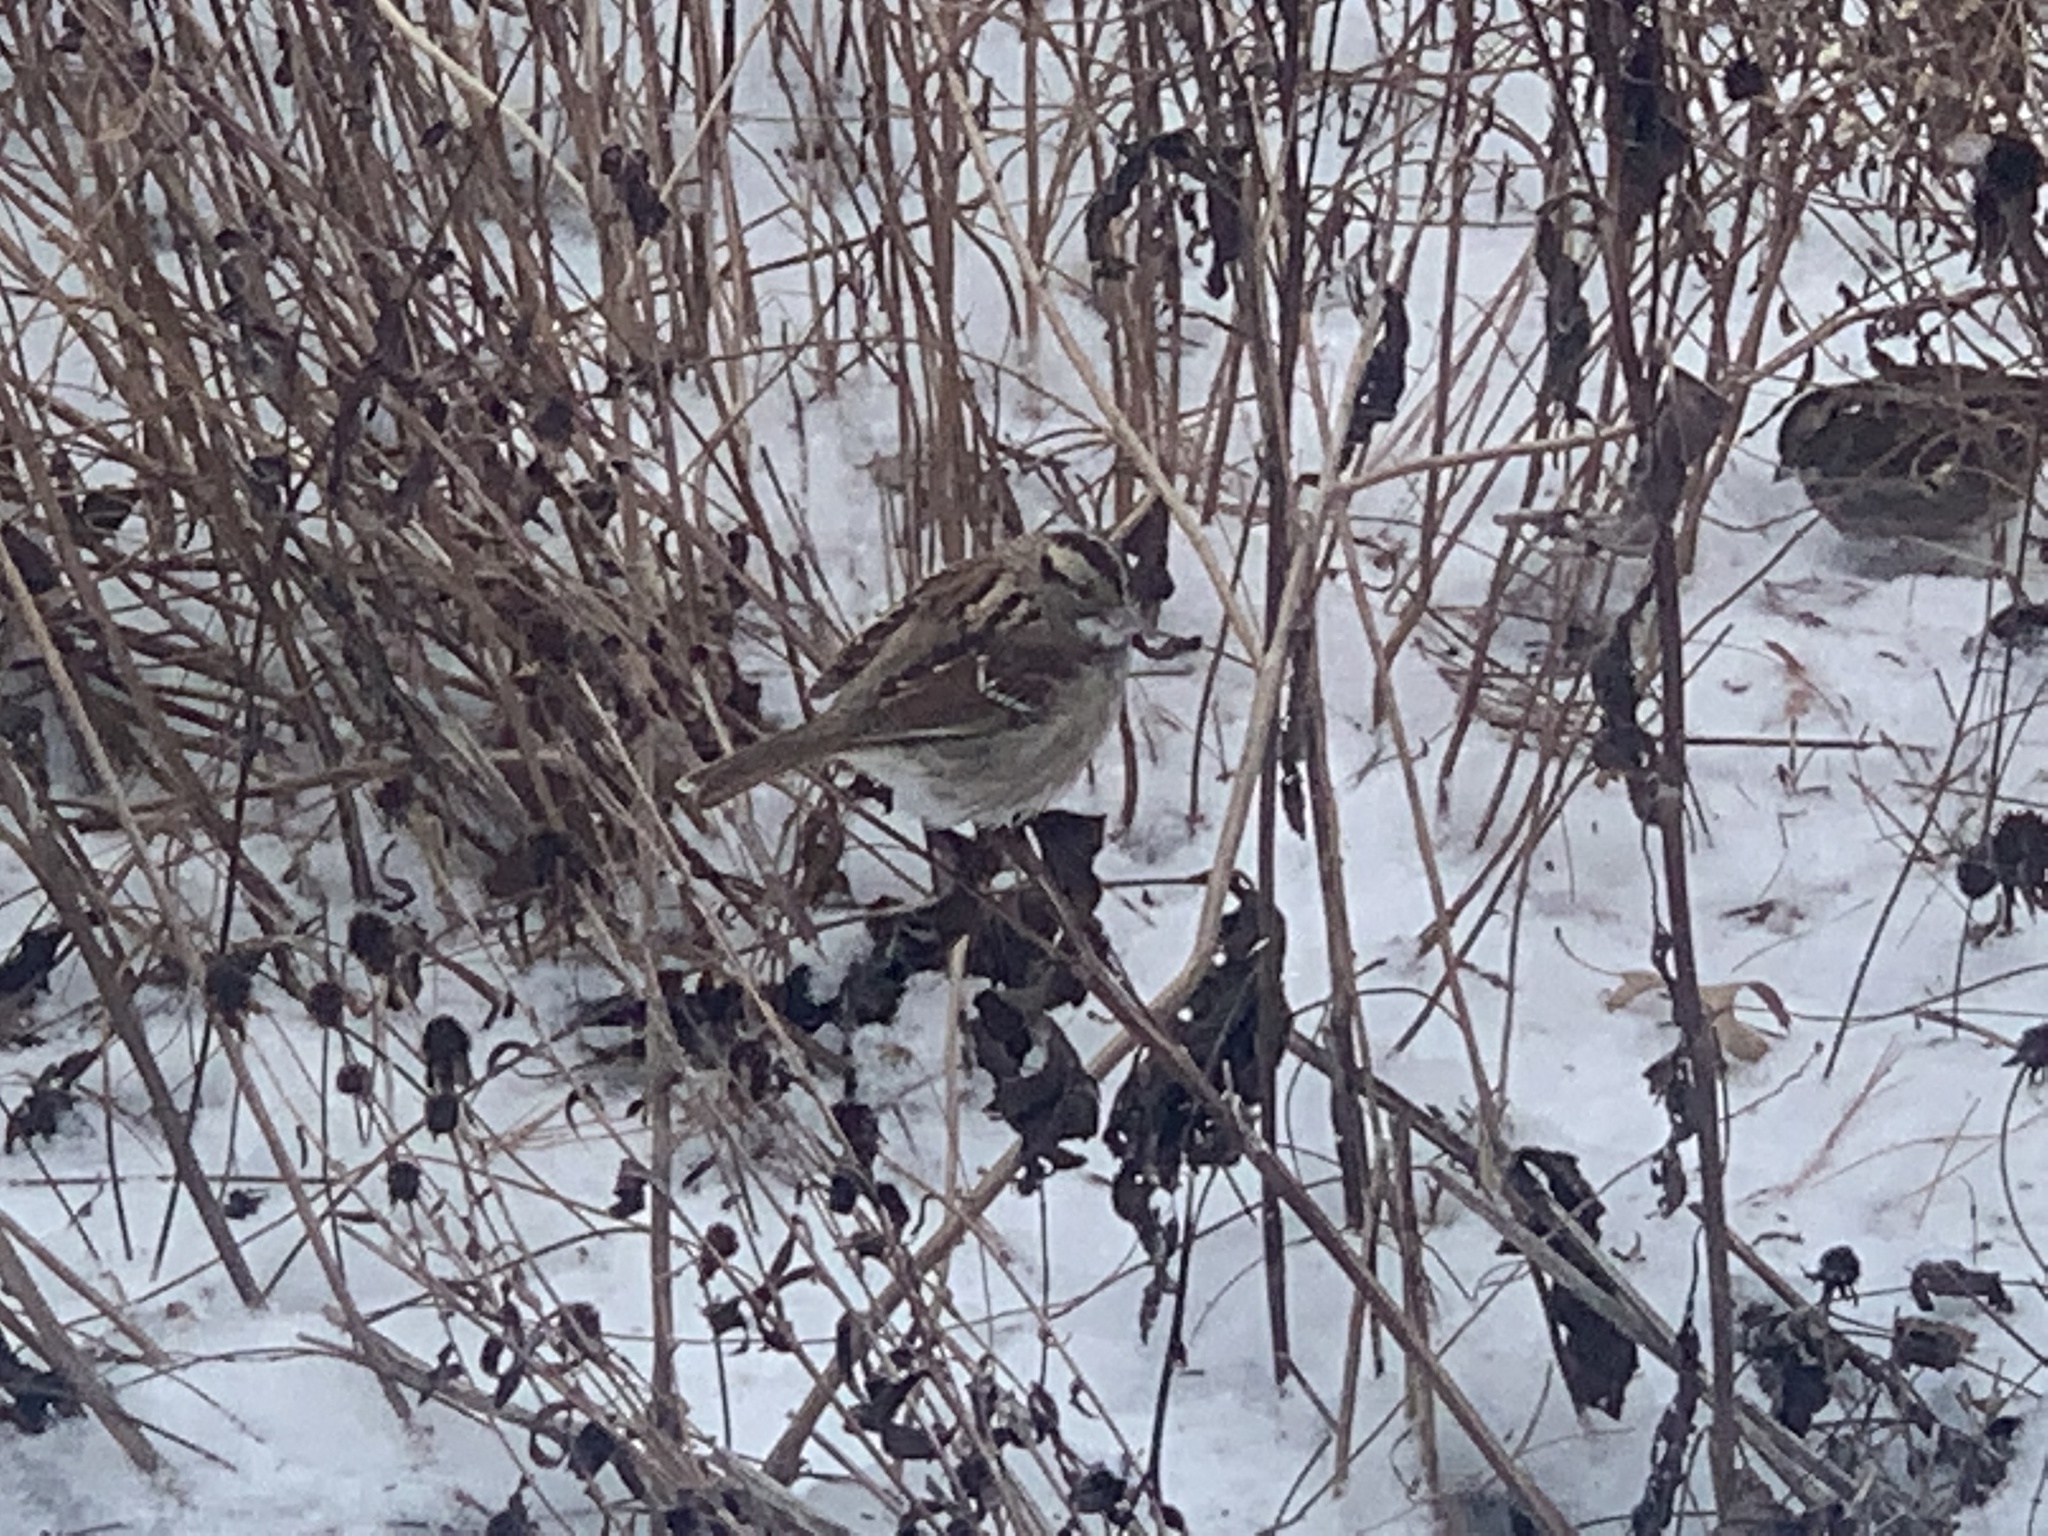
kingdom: Animalia
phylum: Chordata
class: Aves
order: Passeriformes
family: Passerellidae
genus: Zonotrichia
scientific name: Zonotrichia albicollis
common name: White-throated sparrow
